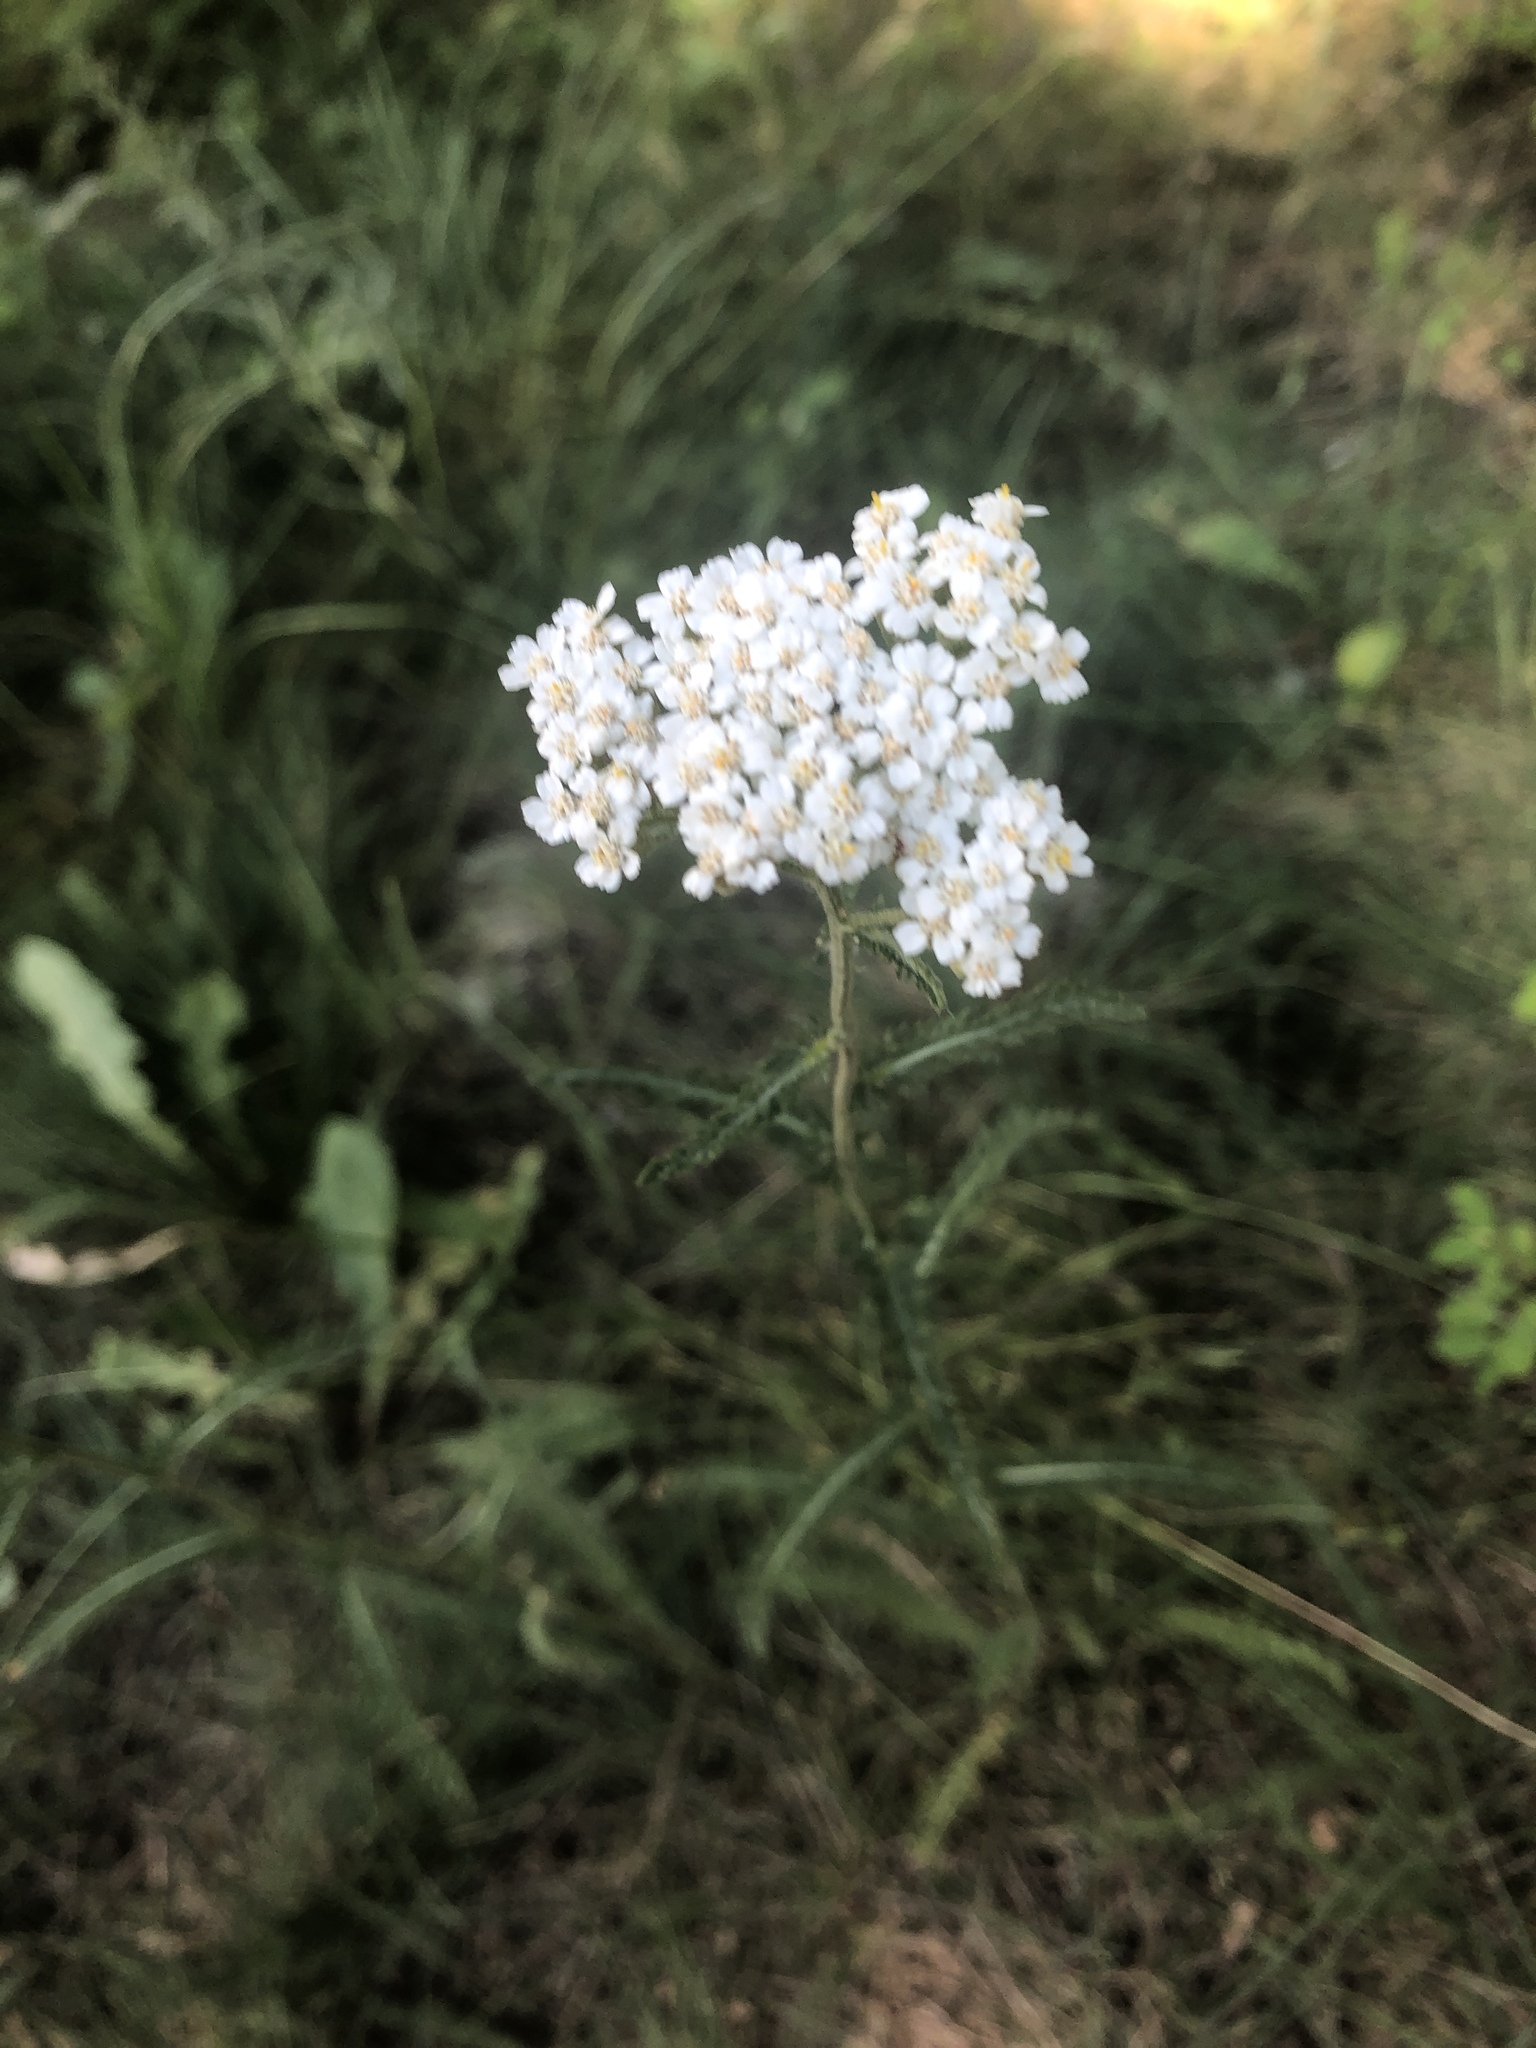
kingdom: Plantae
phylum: Tracheophyta
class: Magnoliopsida
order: Asterales
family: Asteraceae
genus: Achillea
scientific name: Achillea millefolium
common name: Yarrow
